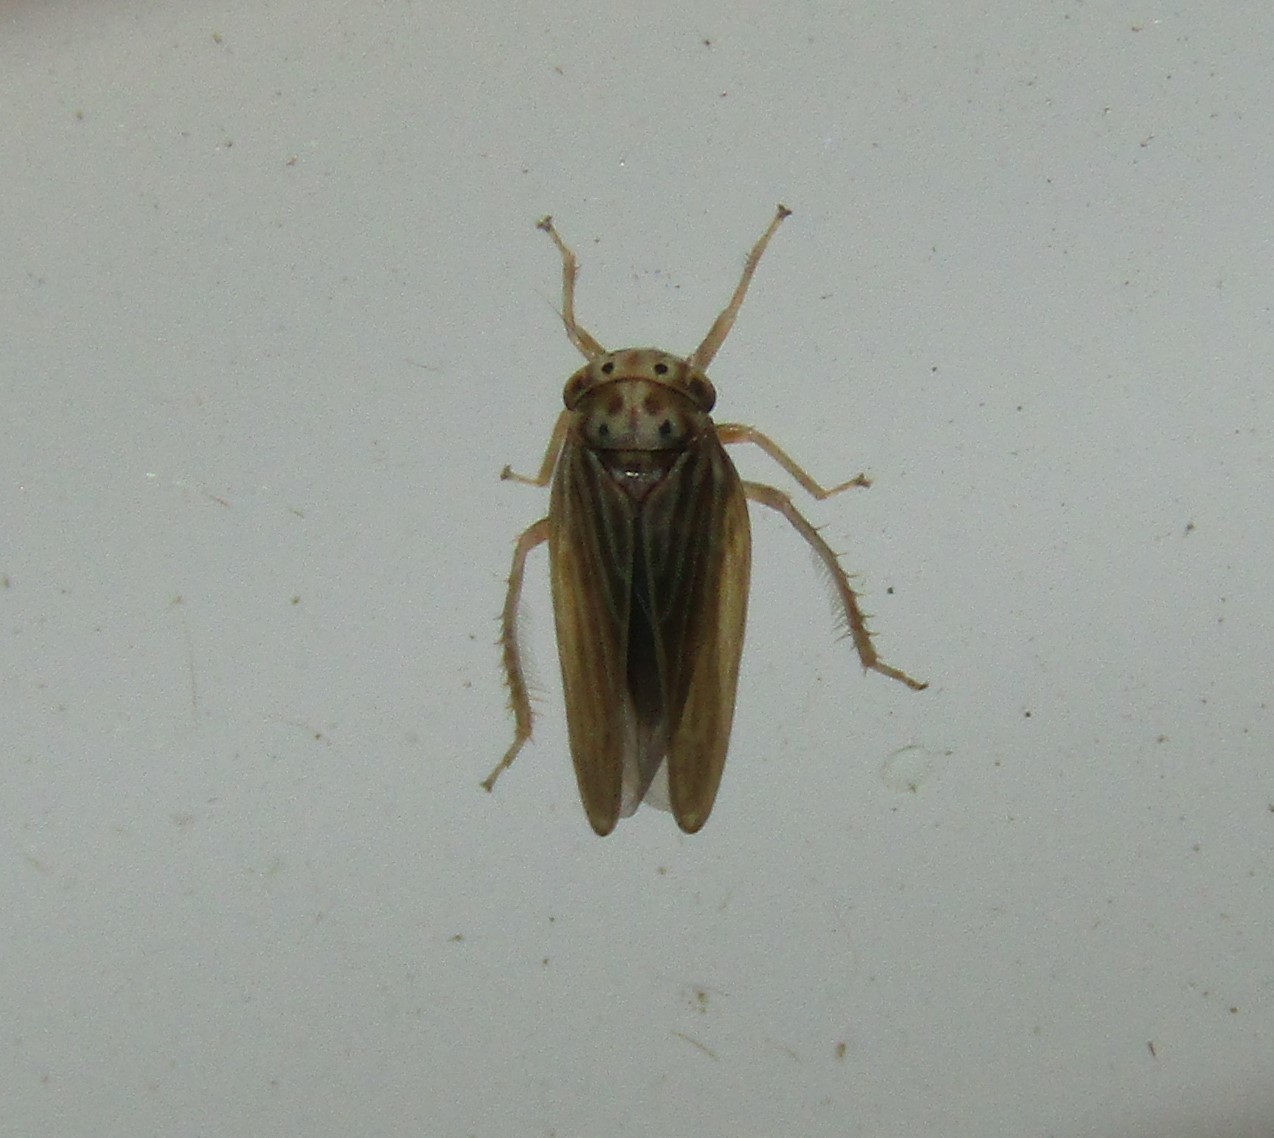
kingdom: Animalia
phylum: Arthropoda
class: Insecta
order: Hemiptera
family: Cicadellidae
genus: Agallia
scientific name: Agallia constricta
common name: The constricted leafhopper
